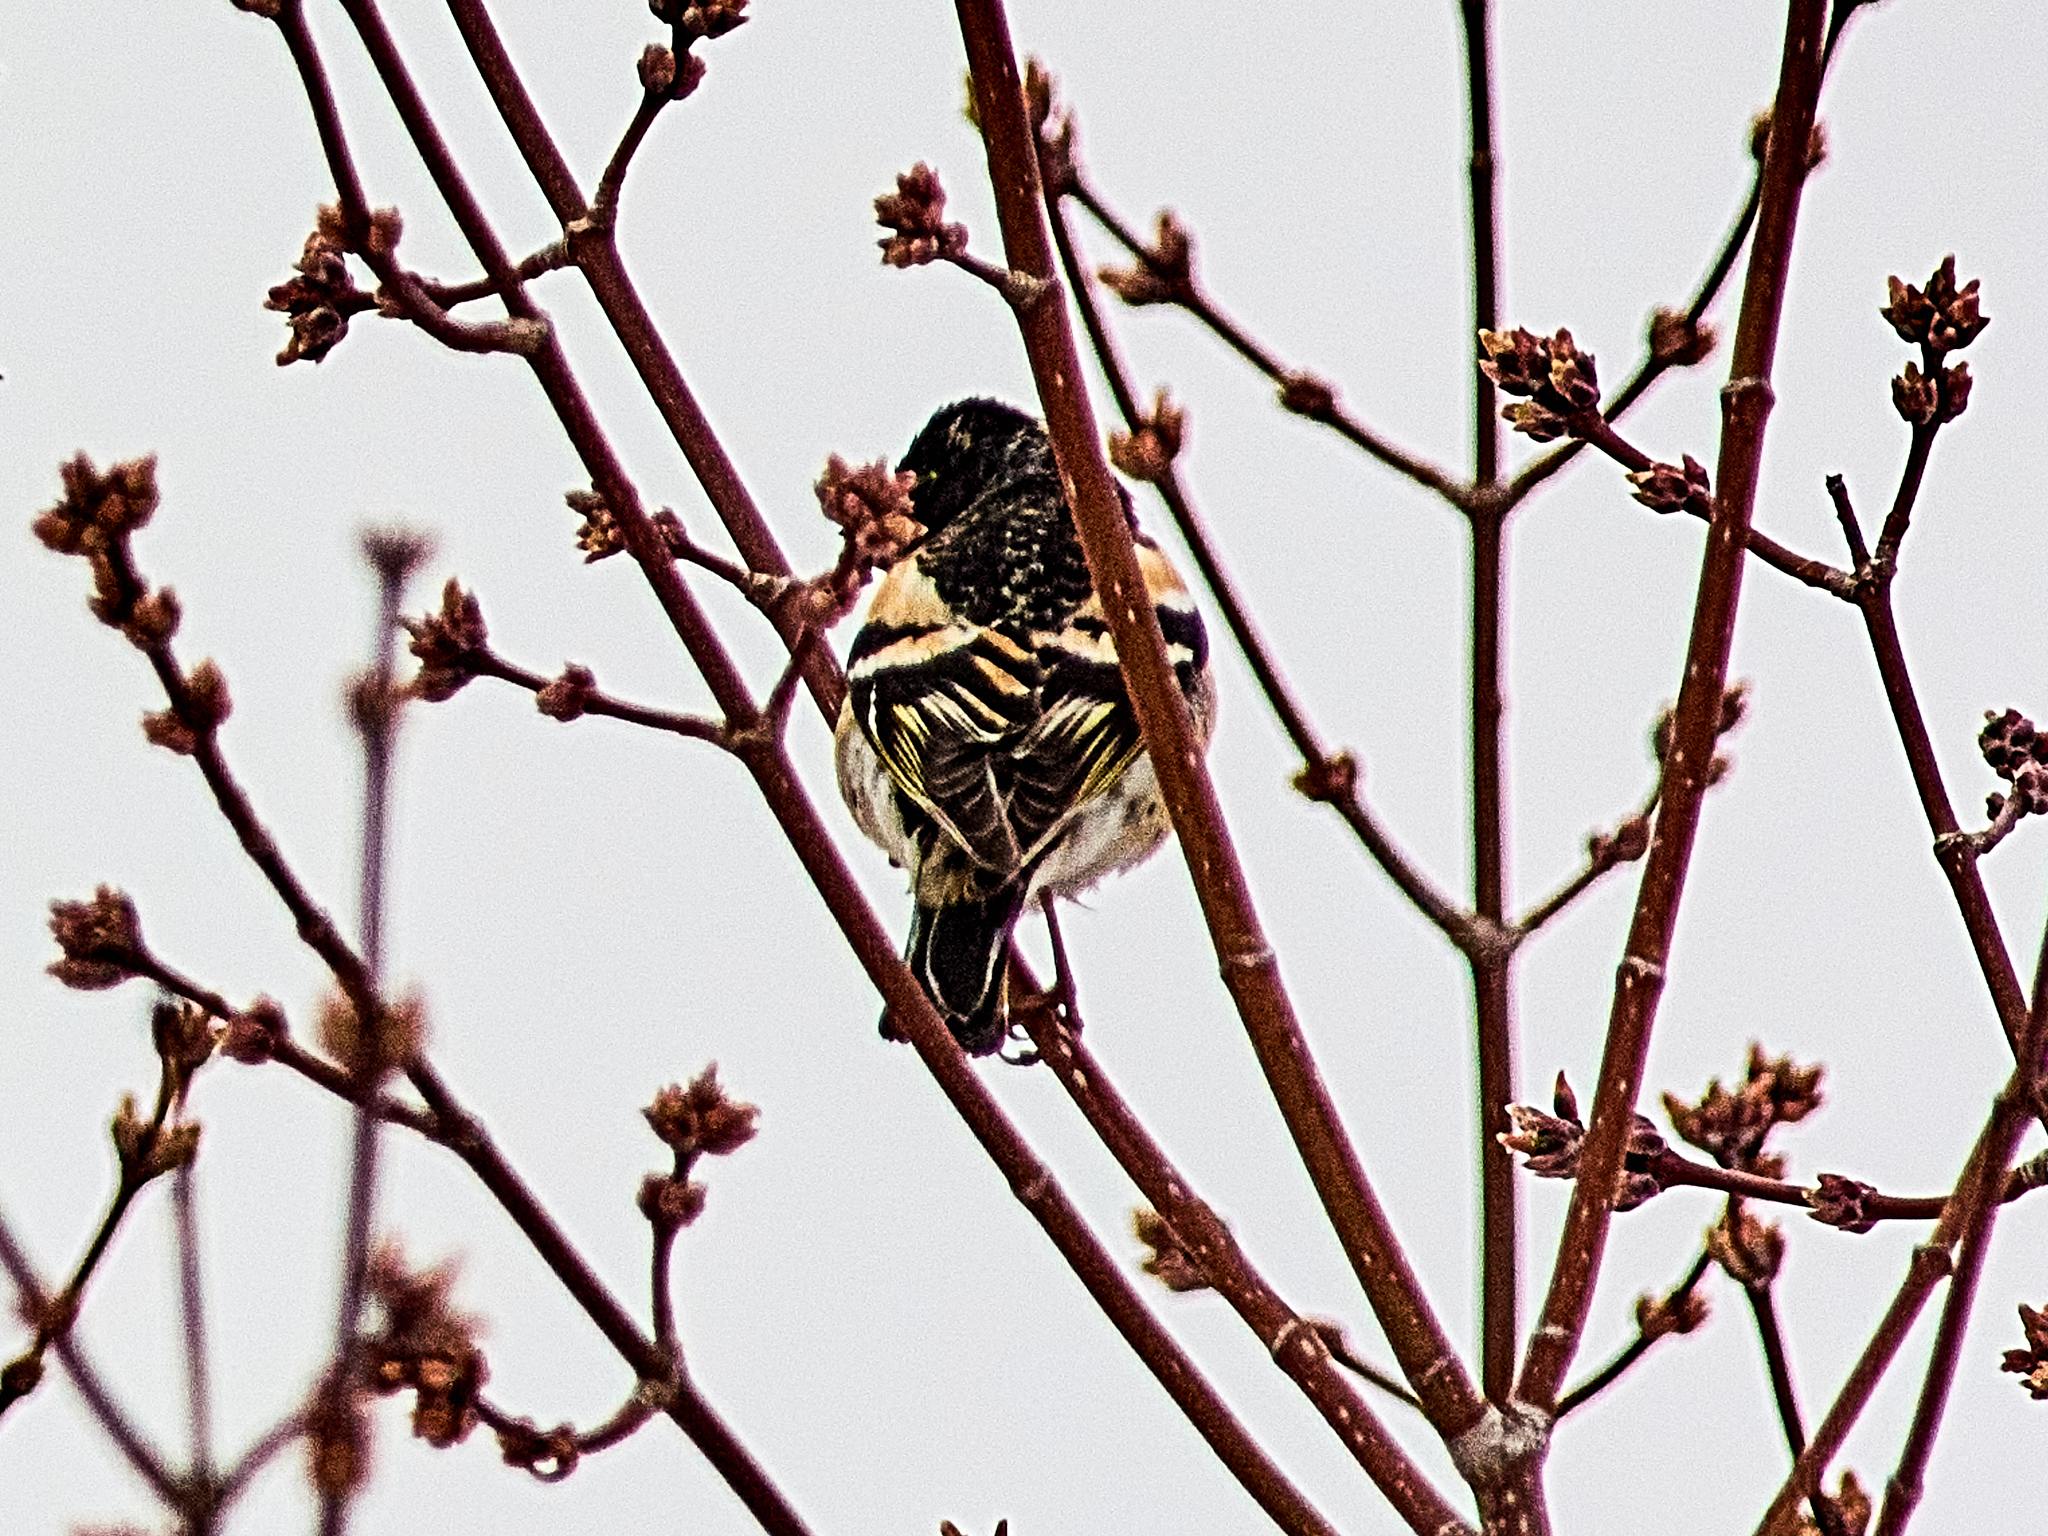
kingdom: Animalia
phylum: Chordata
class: Aves
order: Passeriformes
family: Fringillidae
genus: Fringilla
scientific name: Fringilla montifringilla
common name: Brambling
